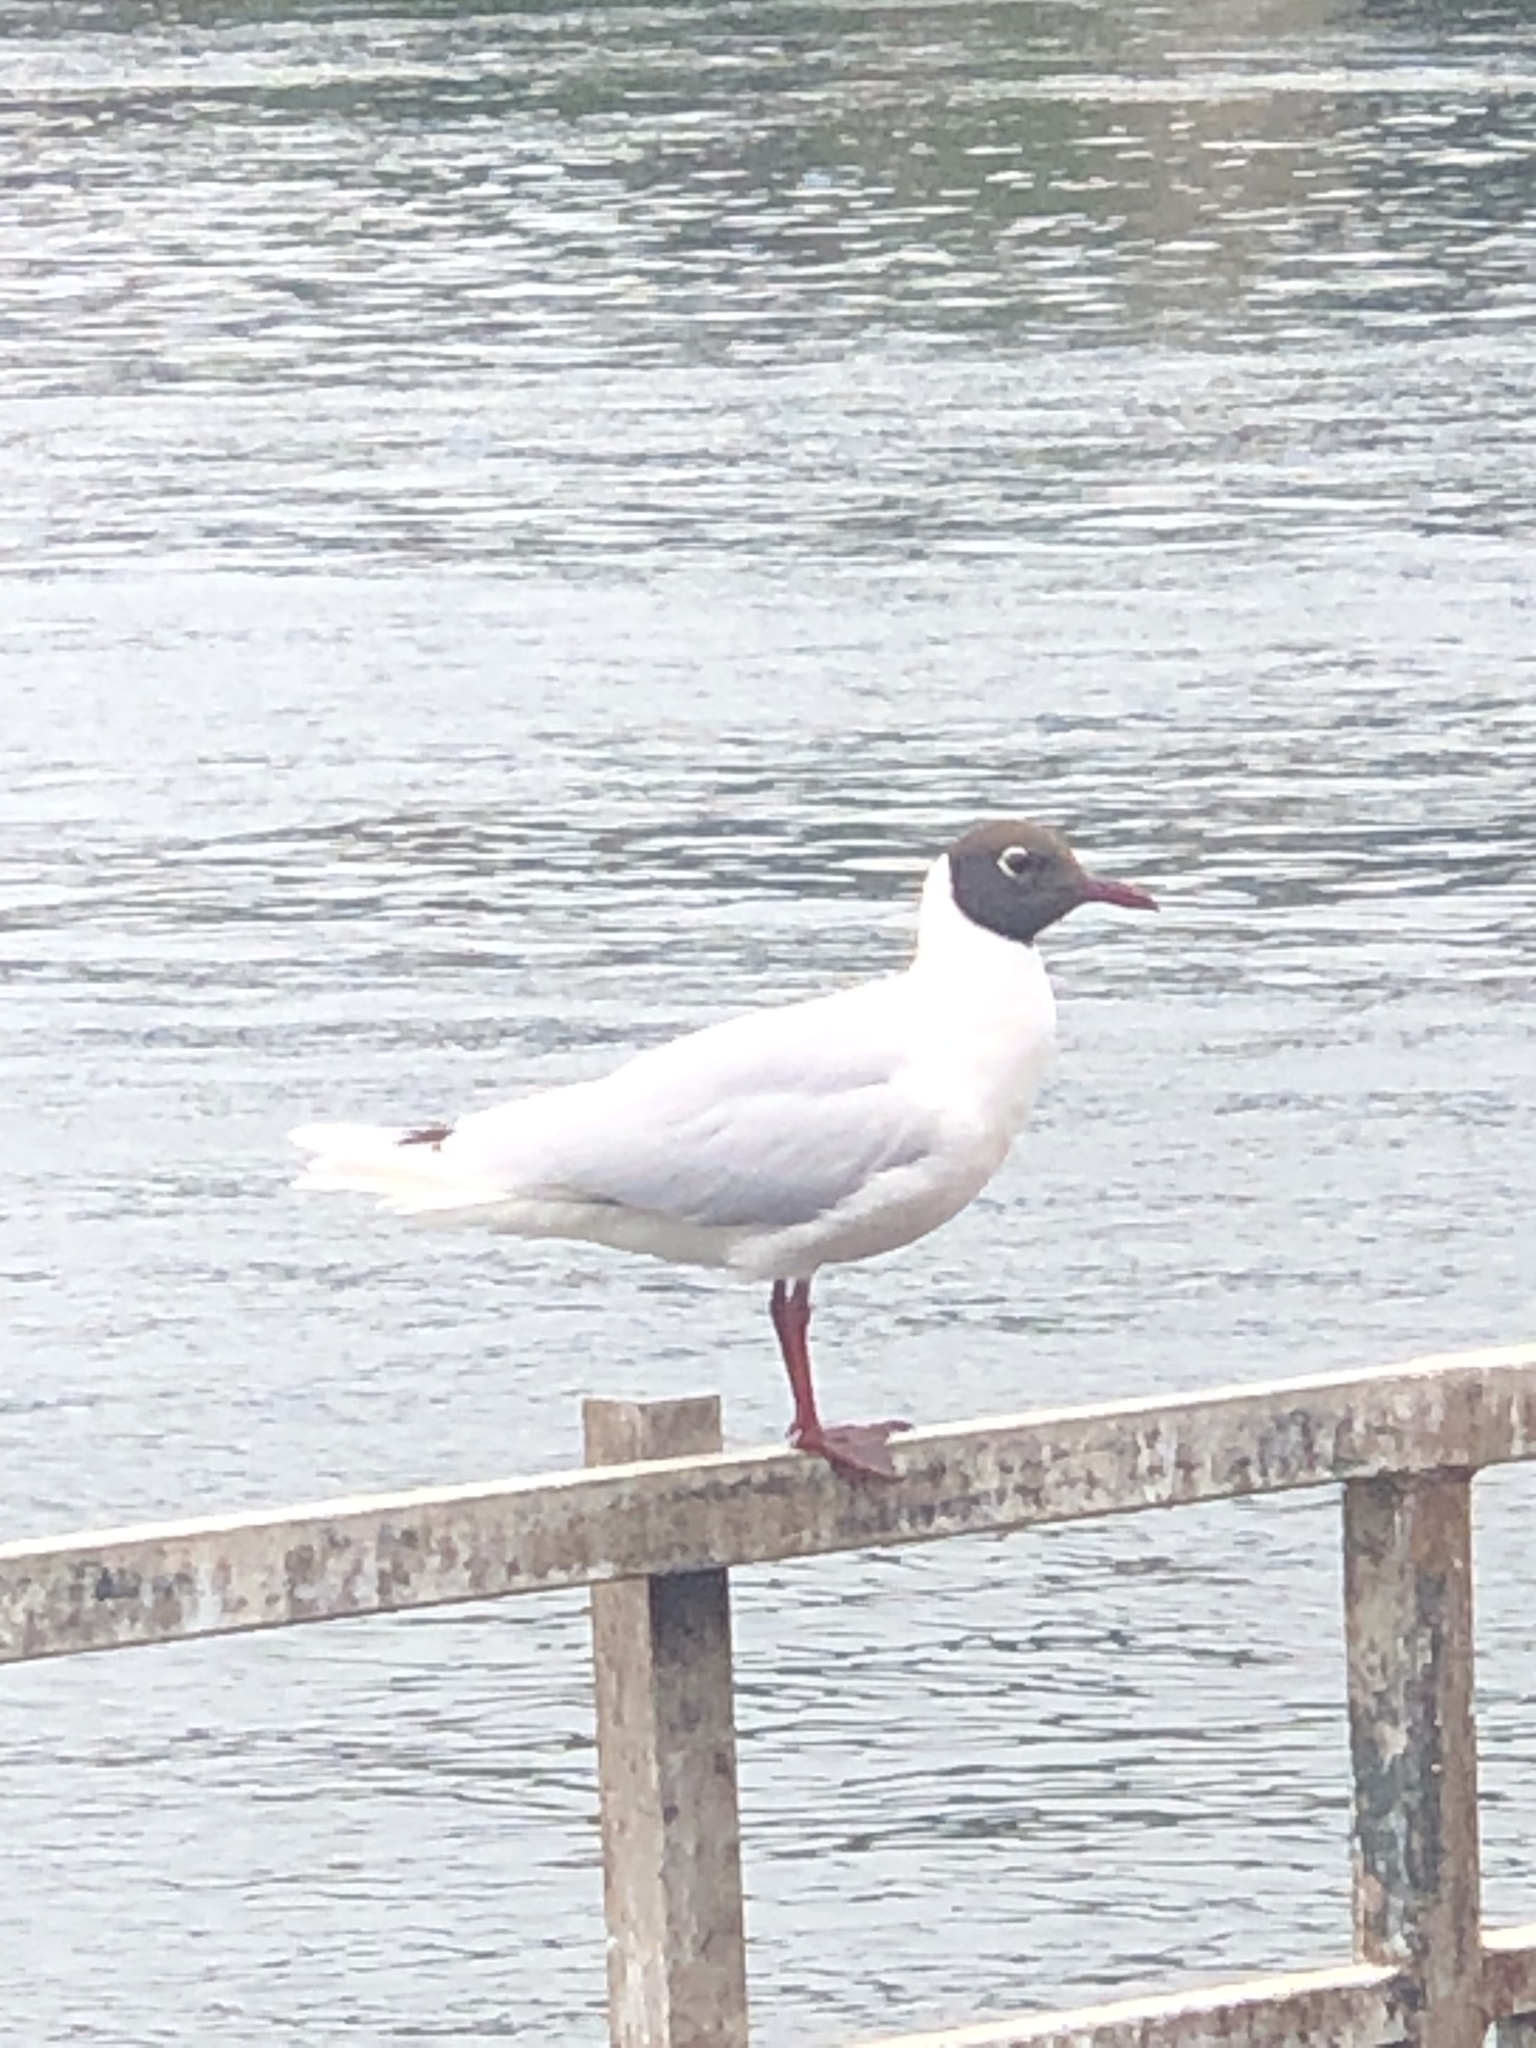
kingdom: Animalia
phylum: Chordata
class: Aves
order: Charadriiformes
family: Laridae
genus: Chroicocephalus
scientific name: Chroicocephalus maculipennis
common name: Brown-hooded gull
